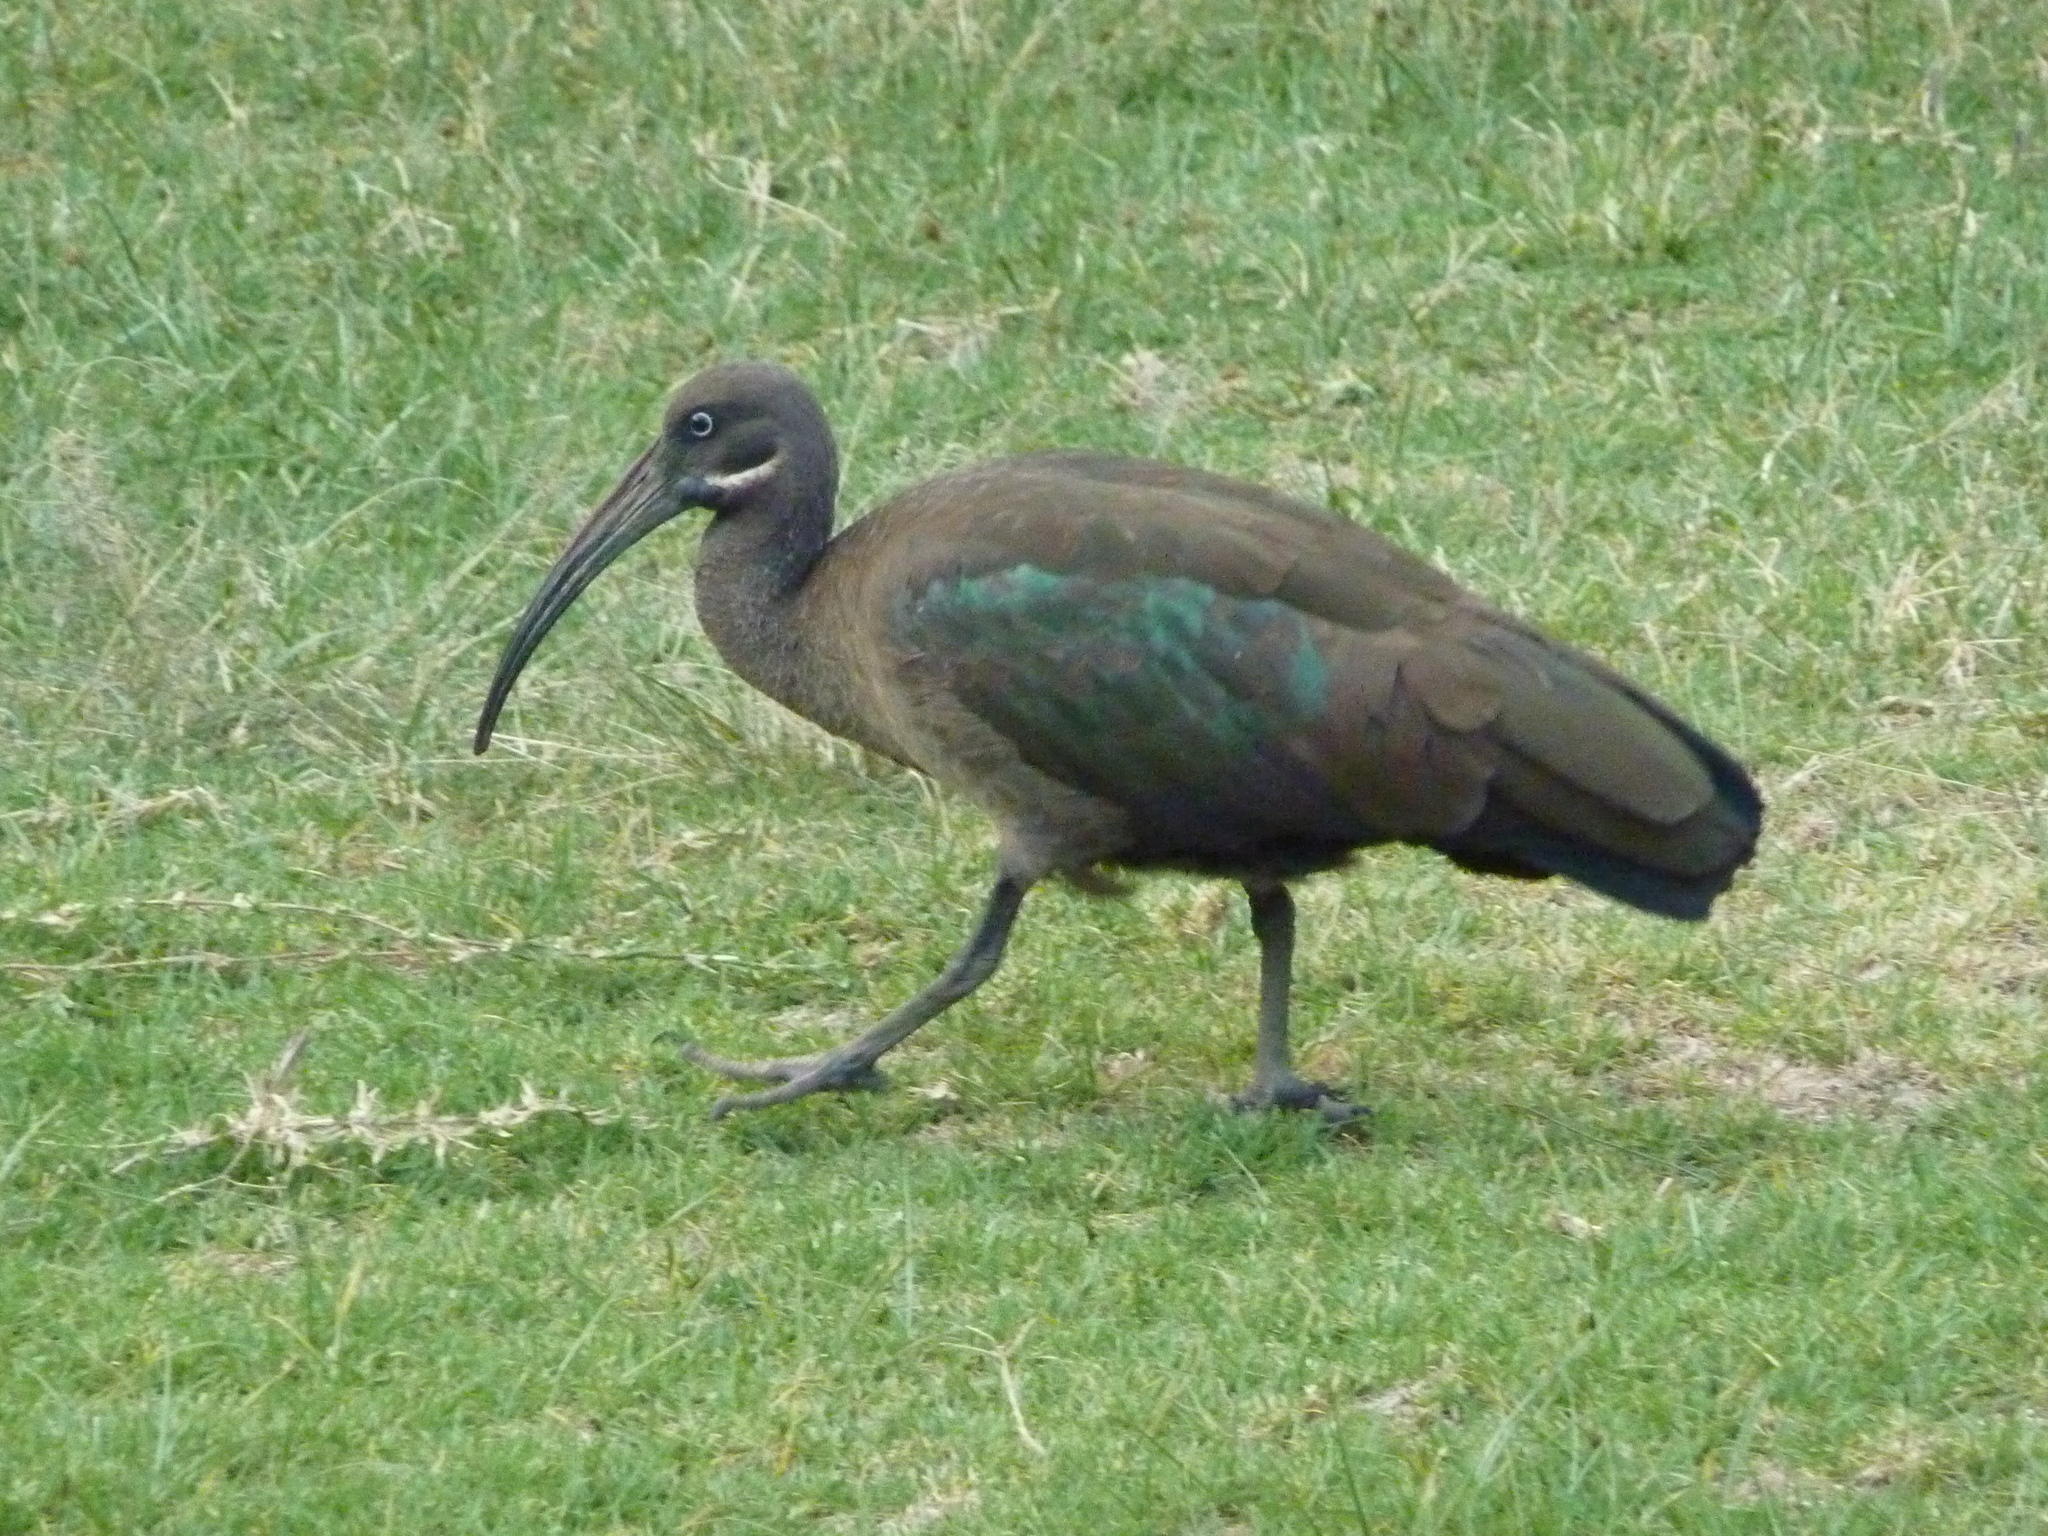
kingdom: Animalia
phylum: Chordata
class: Aves
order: Pelecaniformes
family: Threskiornithidae
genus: Bostrychia
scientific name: Bostrychia hagedash
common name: Hadada ibis
